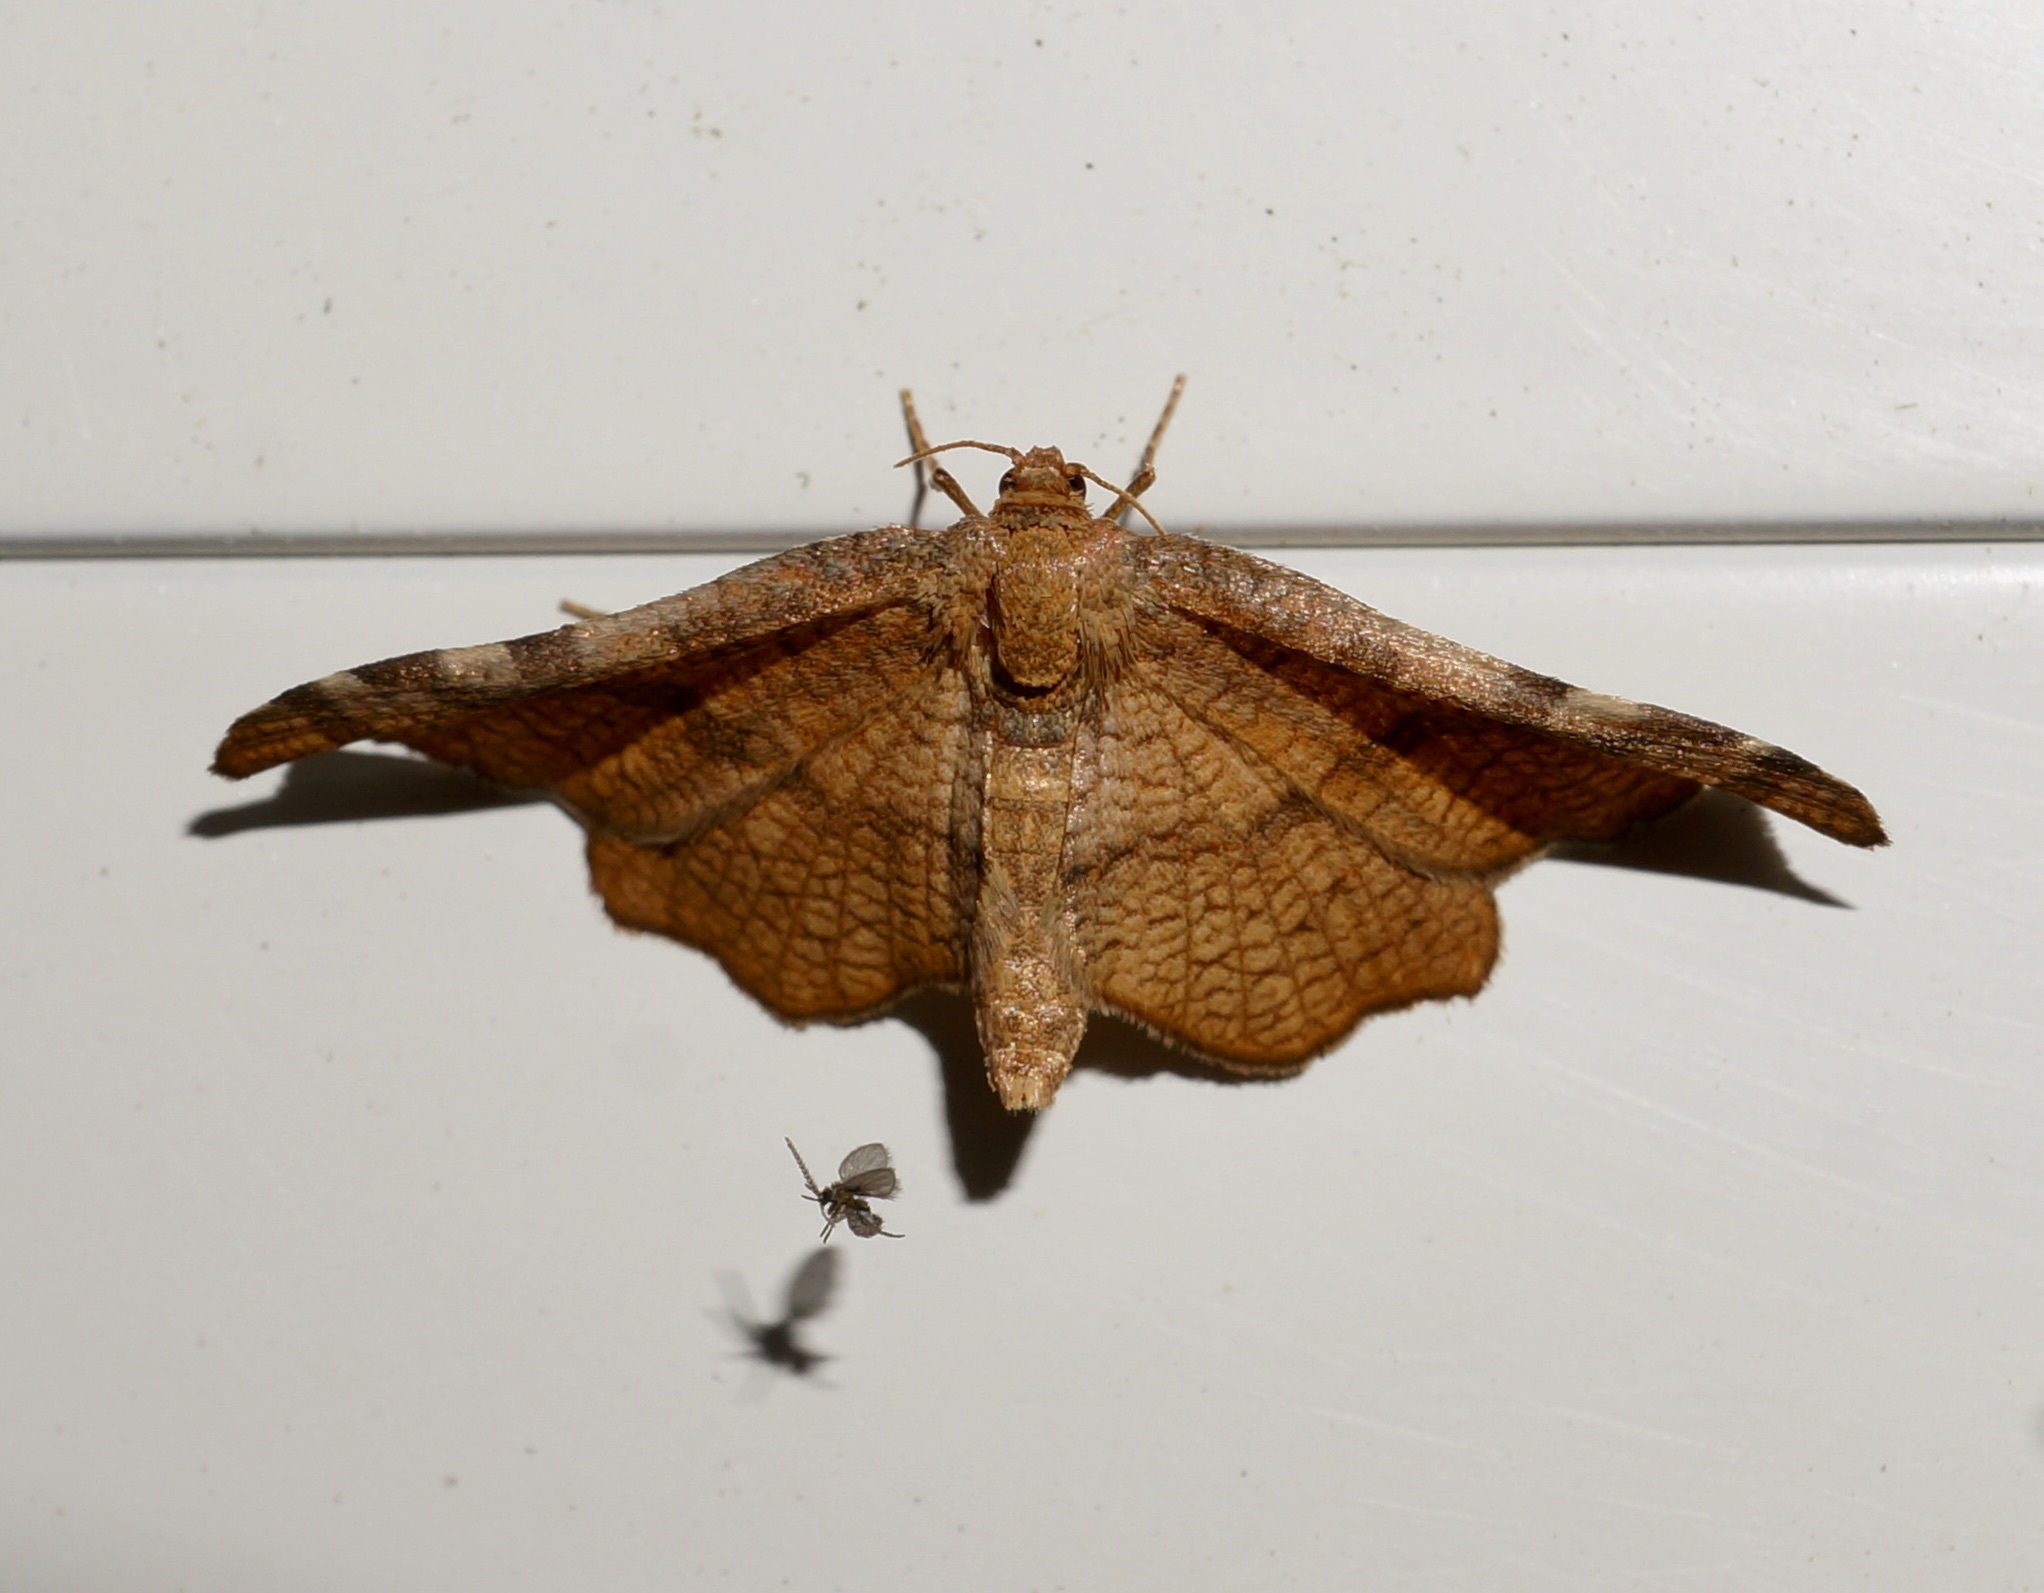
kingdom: Animalia
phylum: Arthropoda
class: Insecta
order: Lepidoptera
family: Thyrididae
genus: Morova
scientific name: Morova subfasciata
